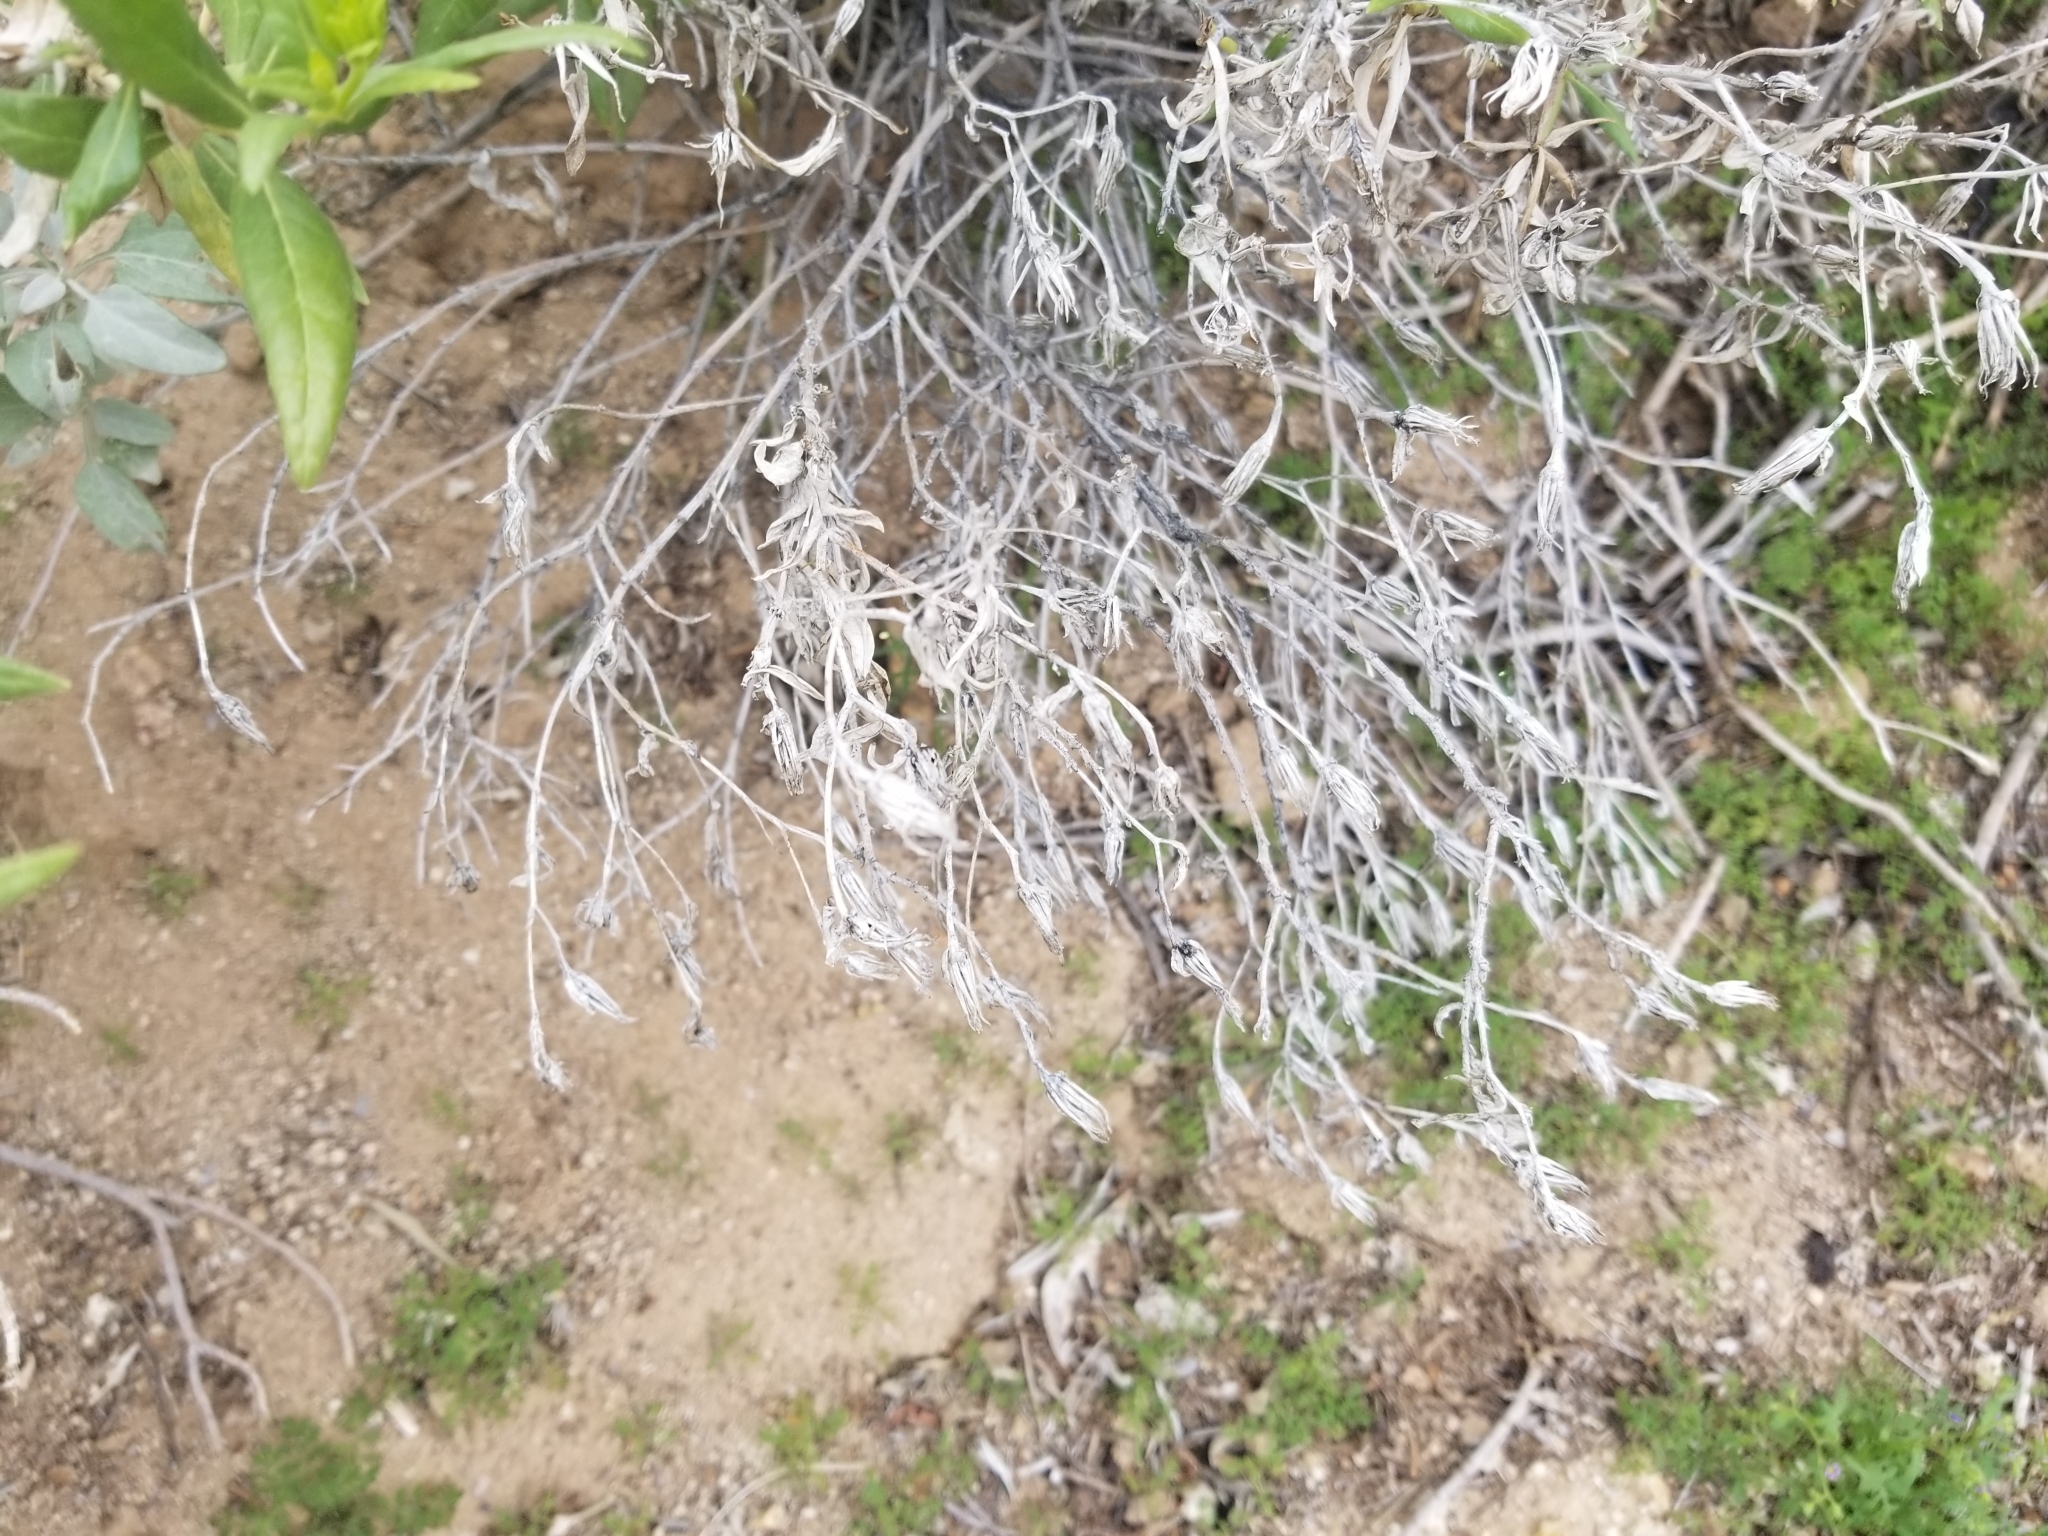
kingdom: Plantae
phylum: Tracheophyta
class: Magnoliopsida
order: Asterales
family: Asteraceae
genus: Trixis
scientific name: Trixis californica
